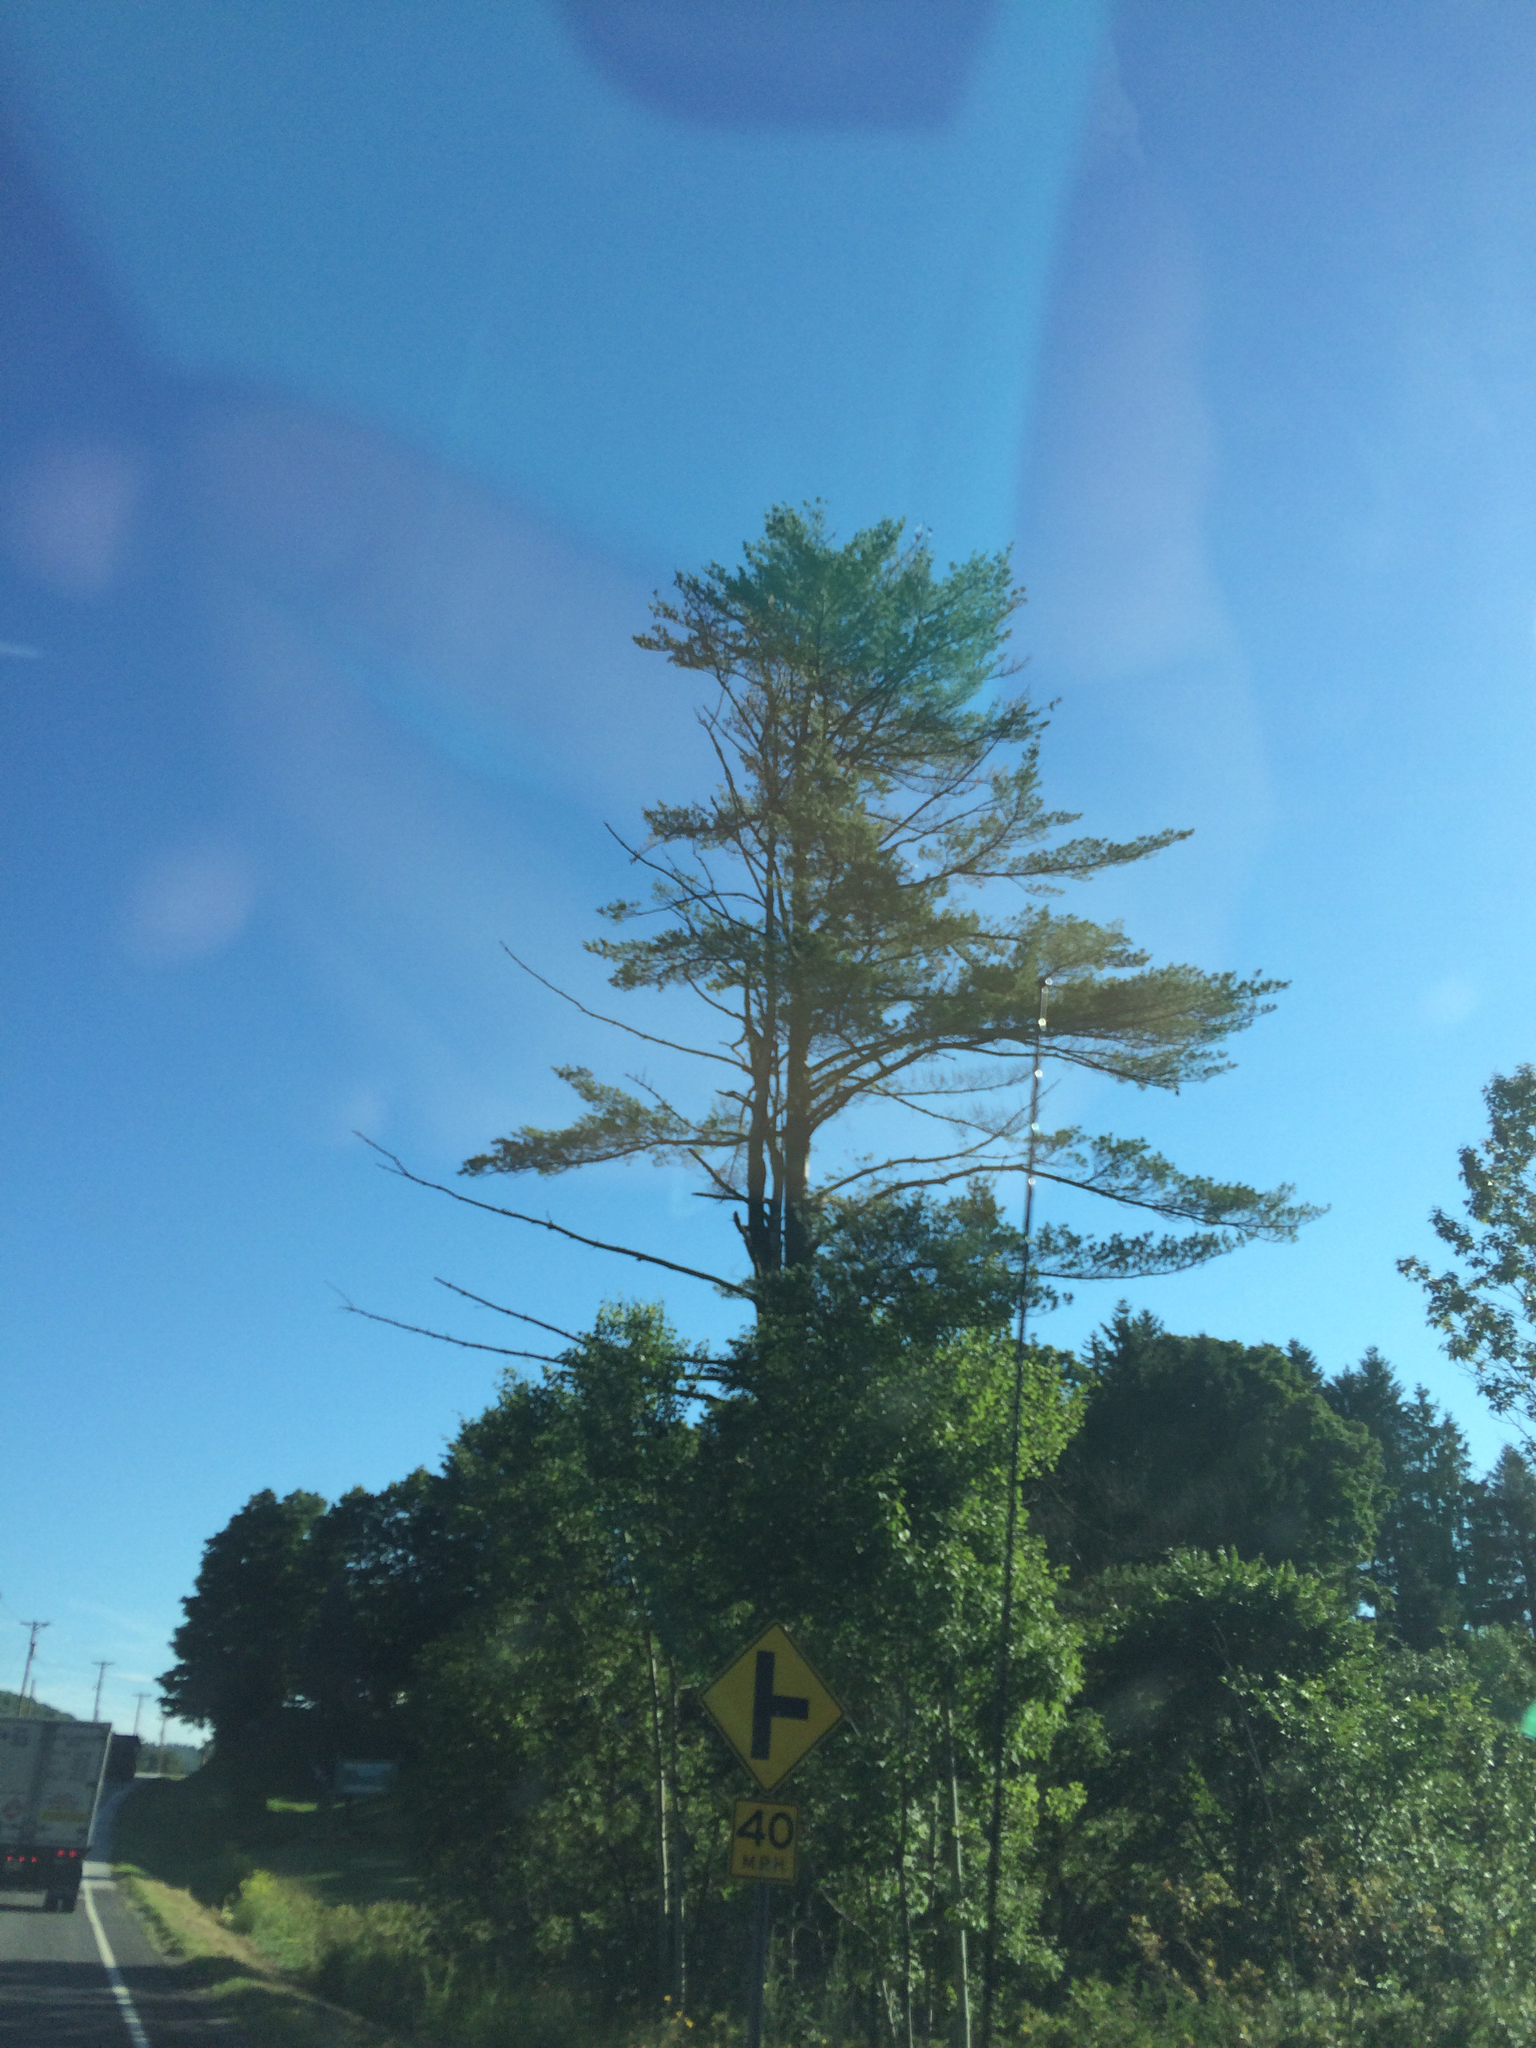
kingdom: Plantae
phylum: Tracheophyta
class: Pinopsida
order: Pinales
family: Pinaceae
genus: Pinus
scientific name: Pinus strobus
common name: Weymouth pine
